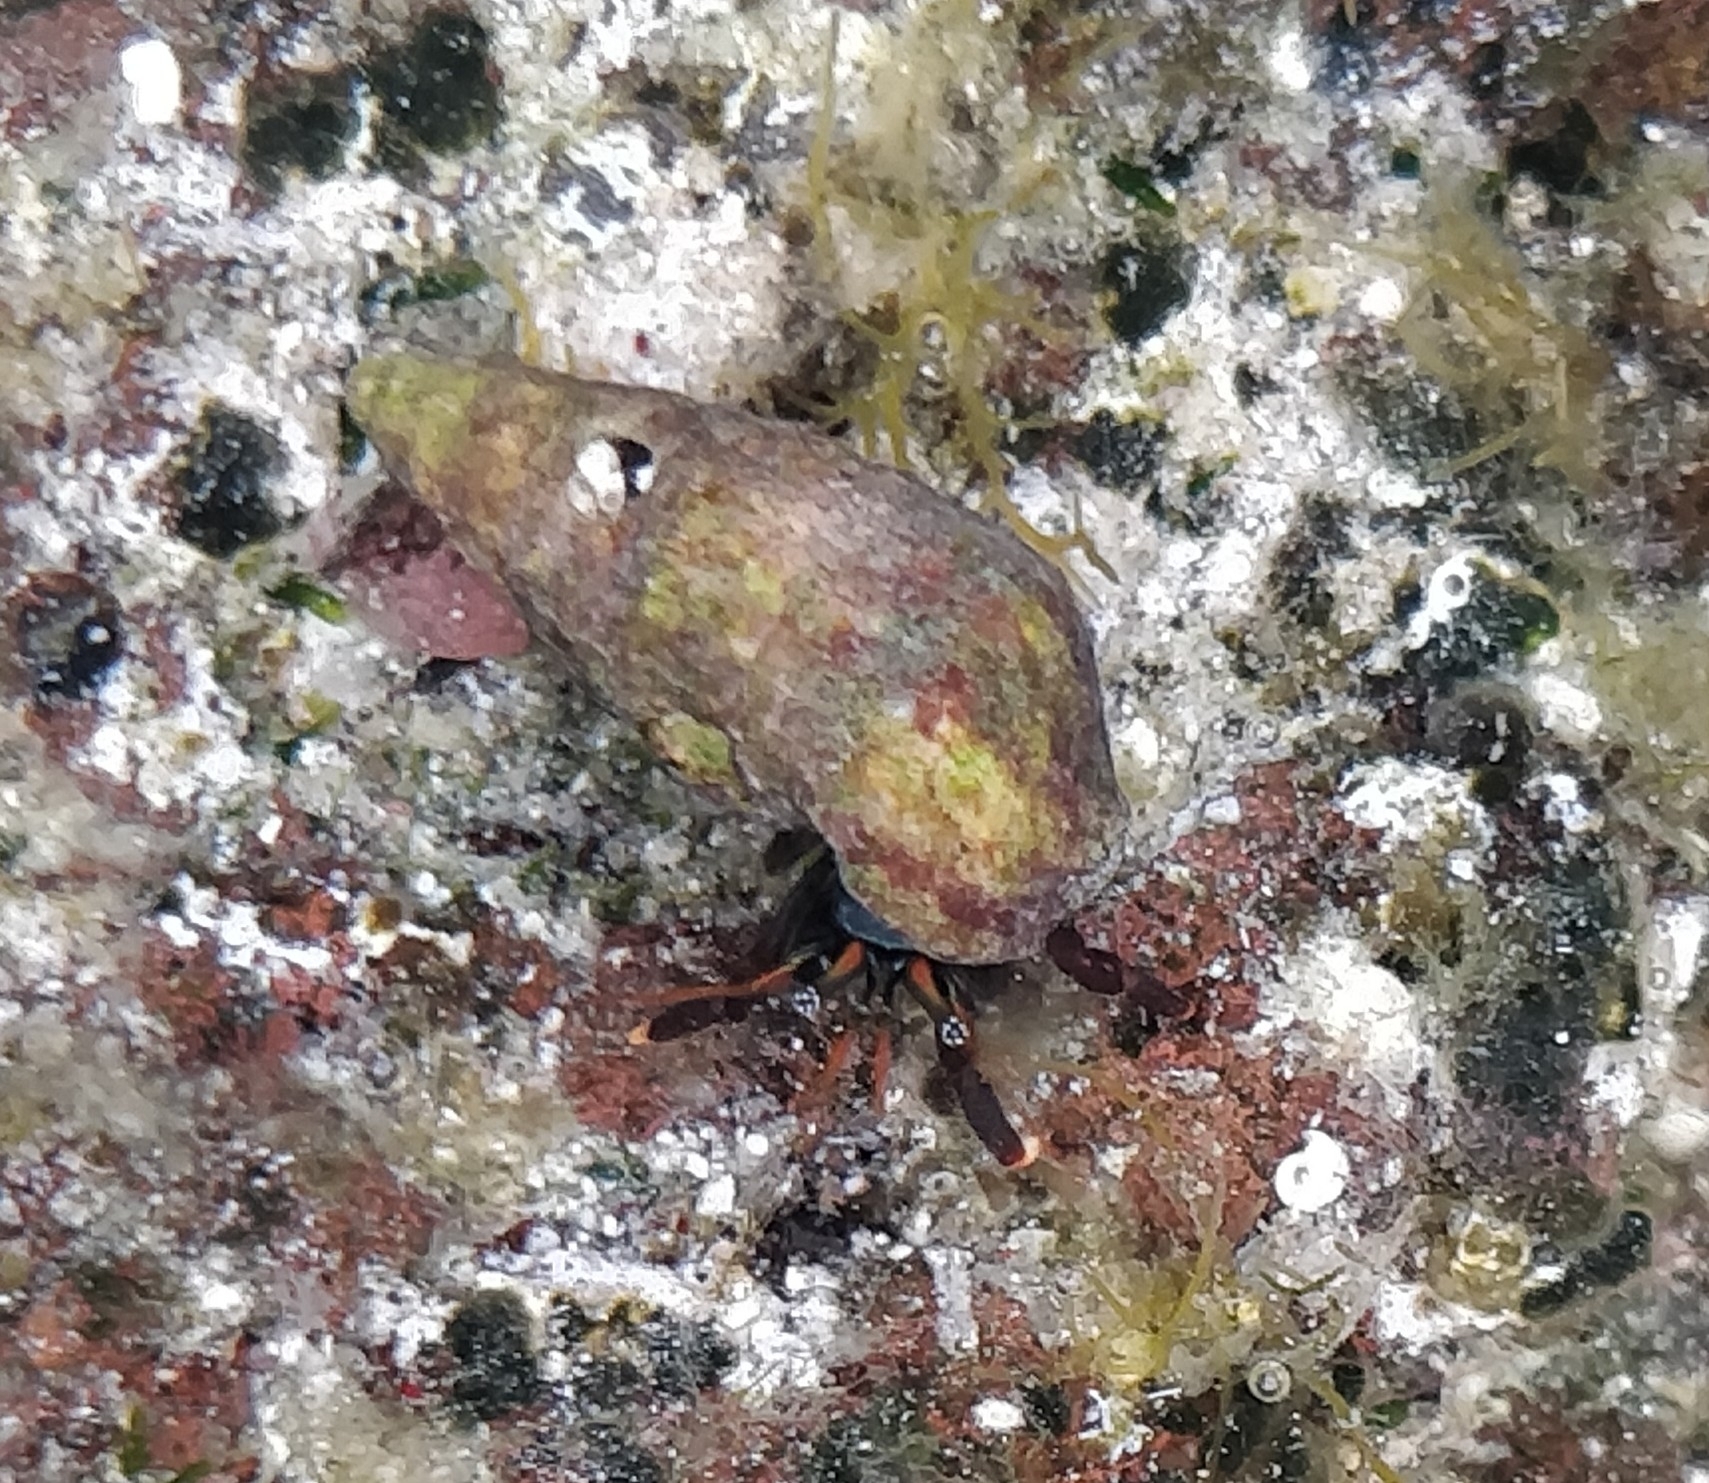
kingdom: Animalia
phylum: Arthropoda
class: Malacostraca
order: Decapoda
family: Diogenidae
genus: Clibanarius
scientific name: Clibanarius aequabilis
